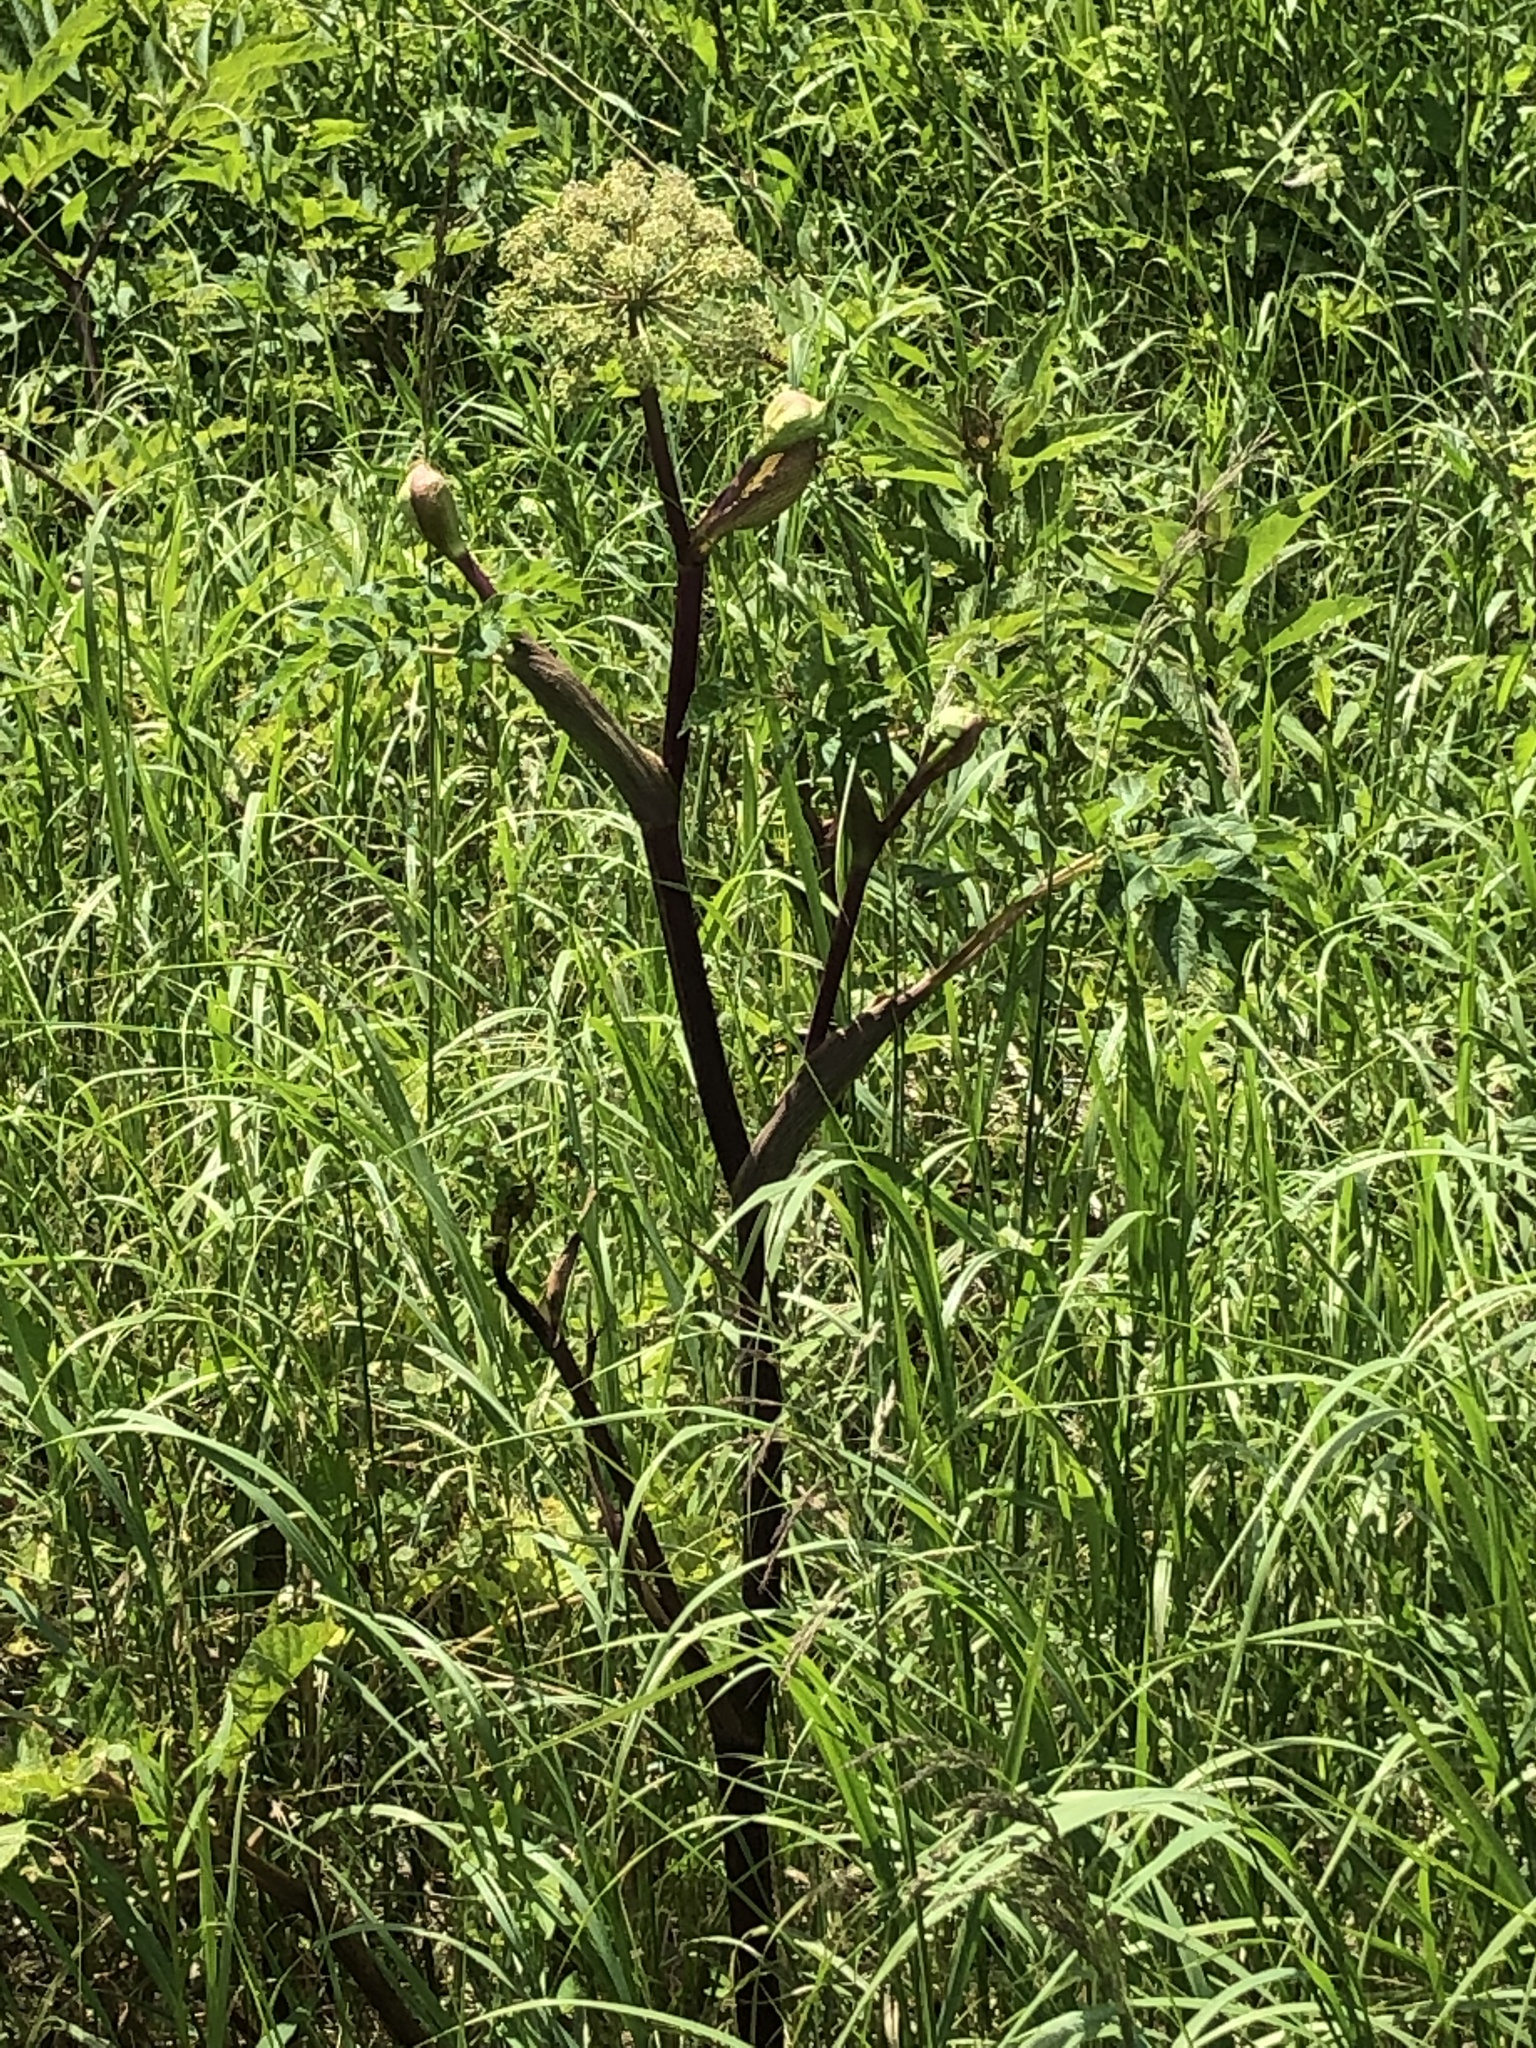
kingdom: Plantae
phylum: Tracheophyta
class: Magnoliopsida
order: Apiales
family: Apiaceae
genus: Angelica
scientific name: Angelica atropurpurea
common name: Great angelica
